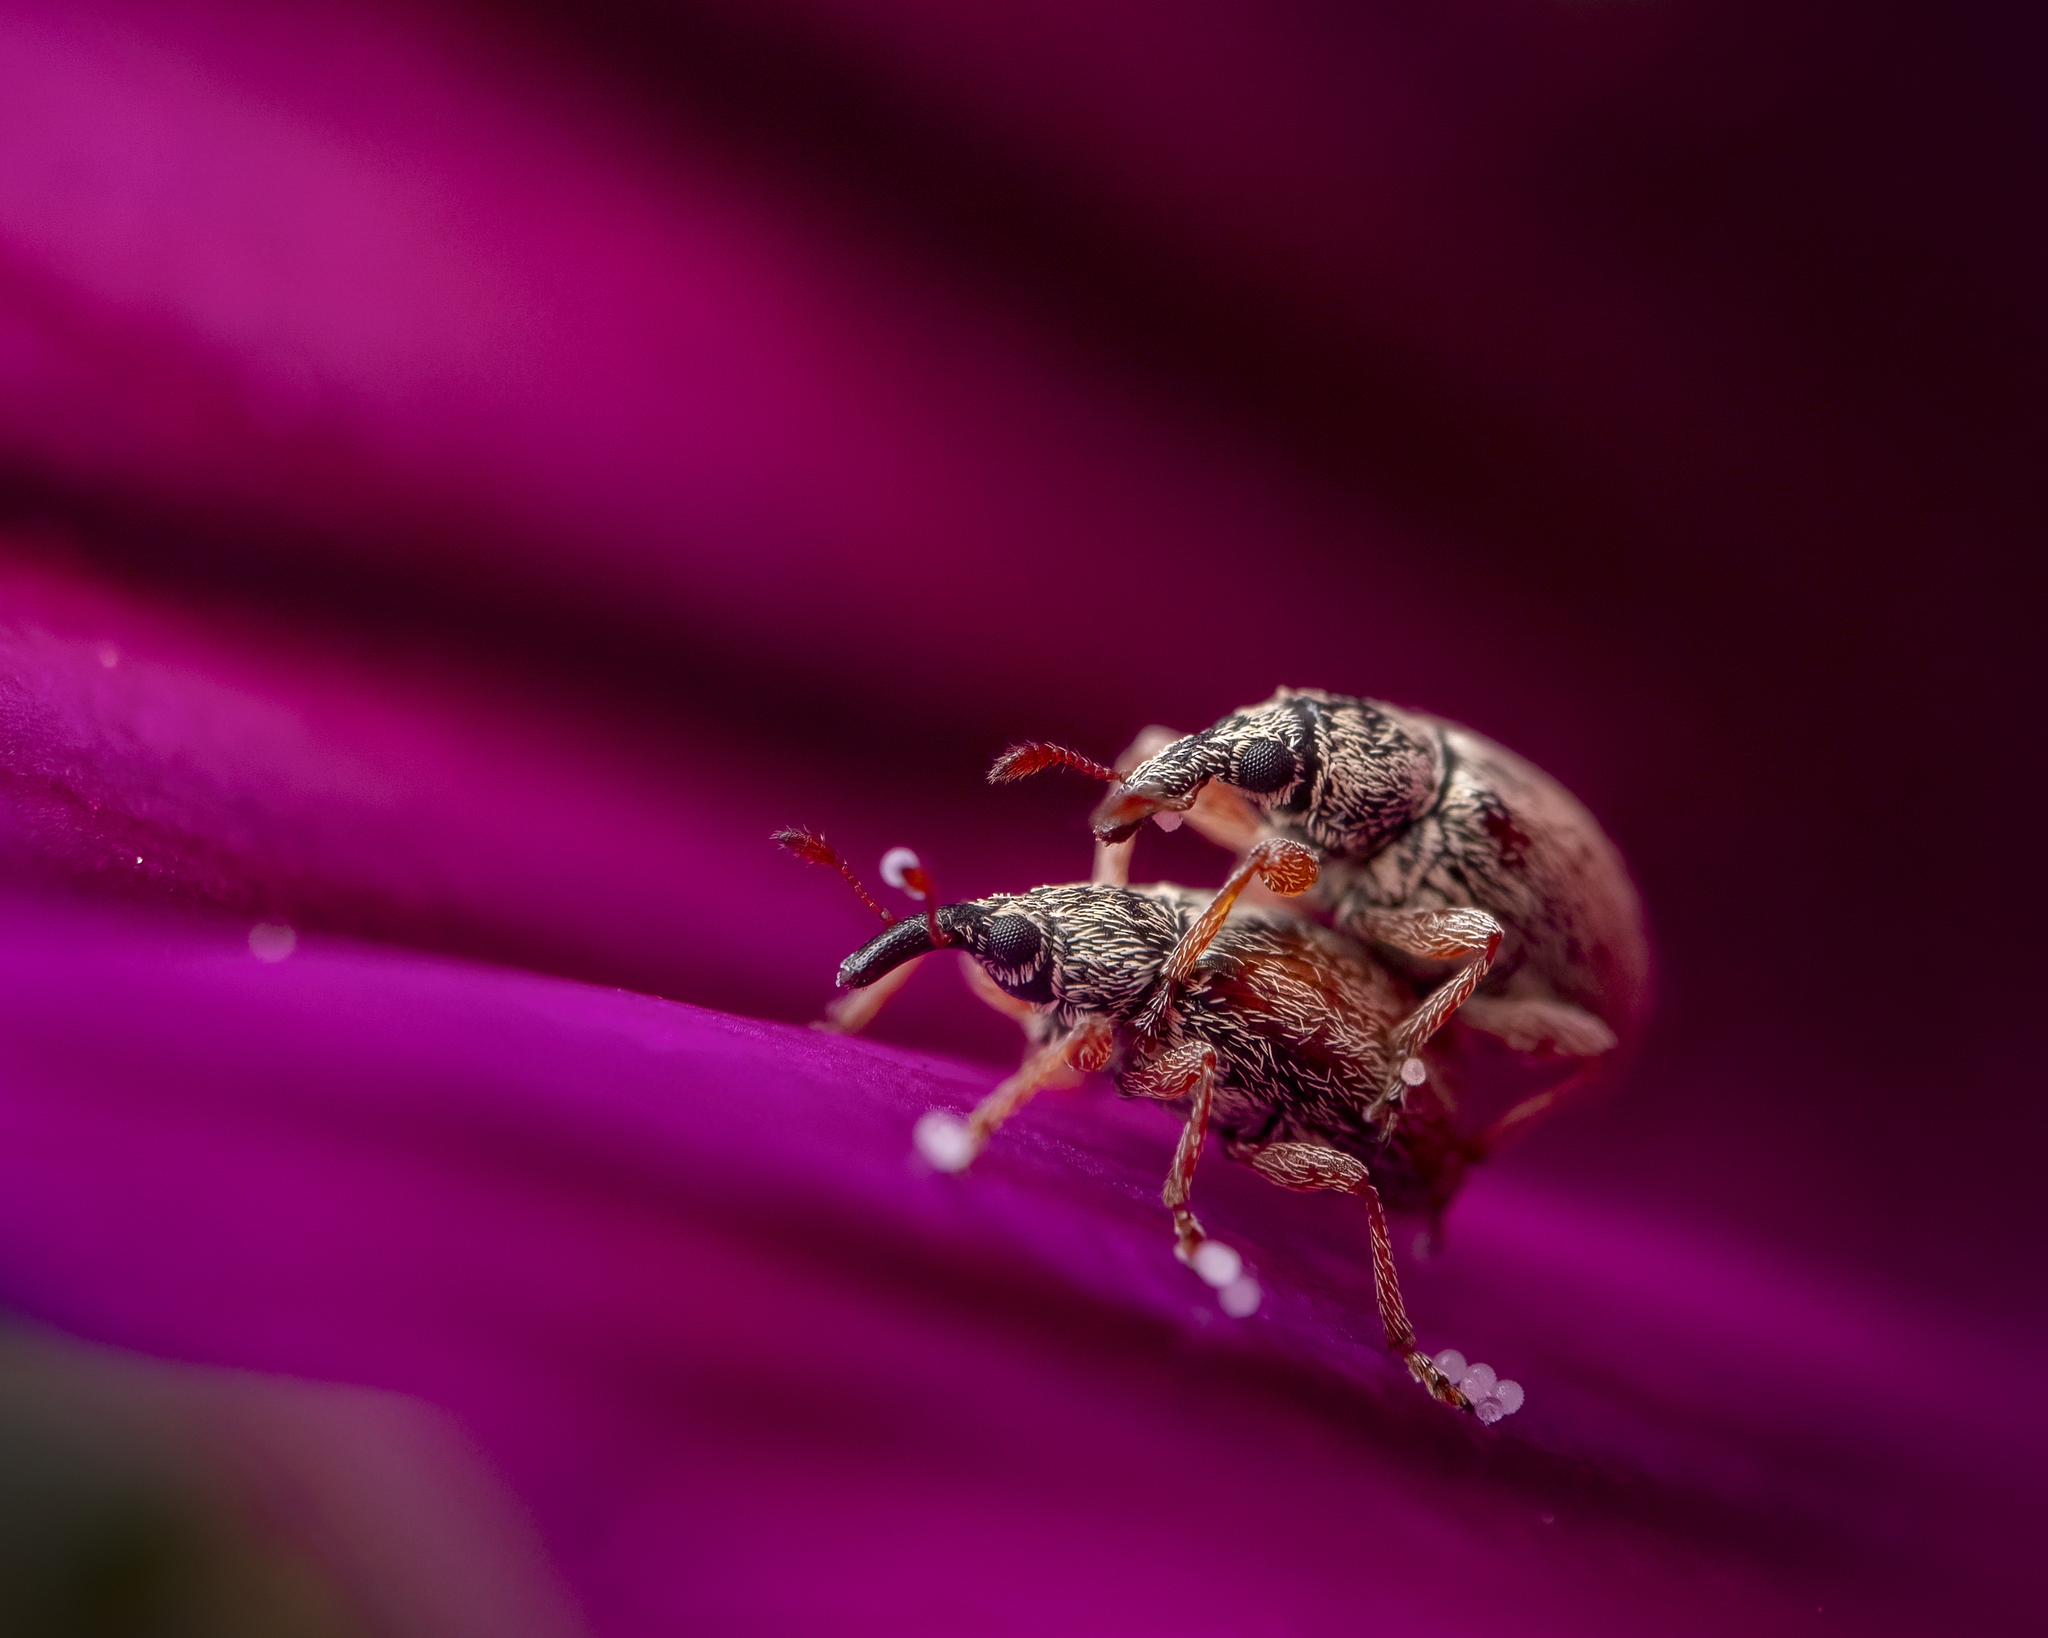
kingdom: Animalia
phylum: Arthropoda
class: Insecta
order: Coleoptera
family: Apionidae
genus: Malvapion
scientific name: Malvapion malvae
